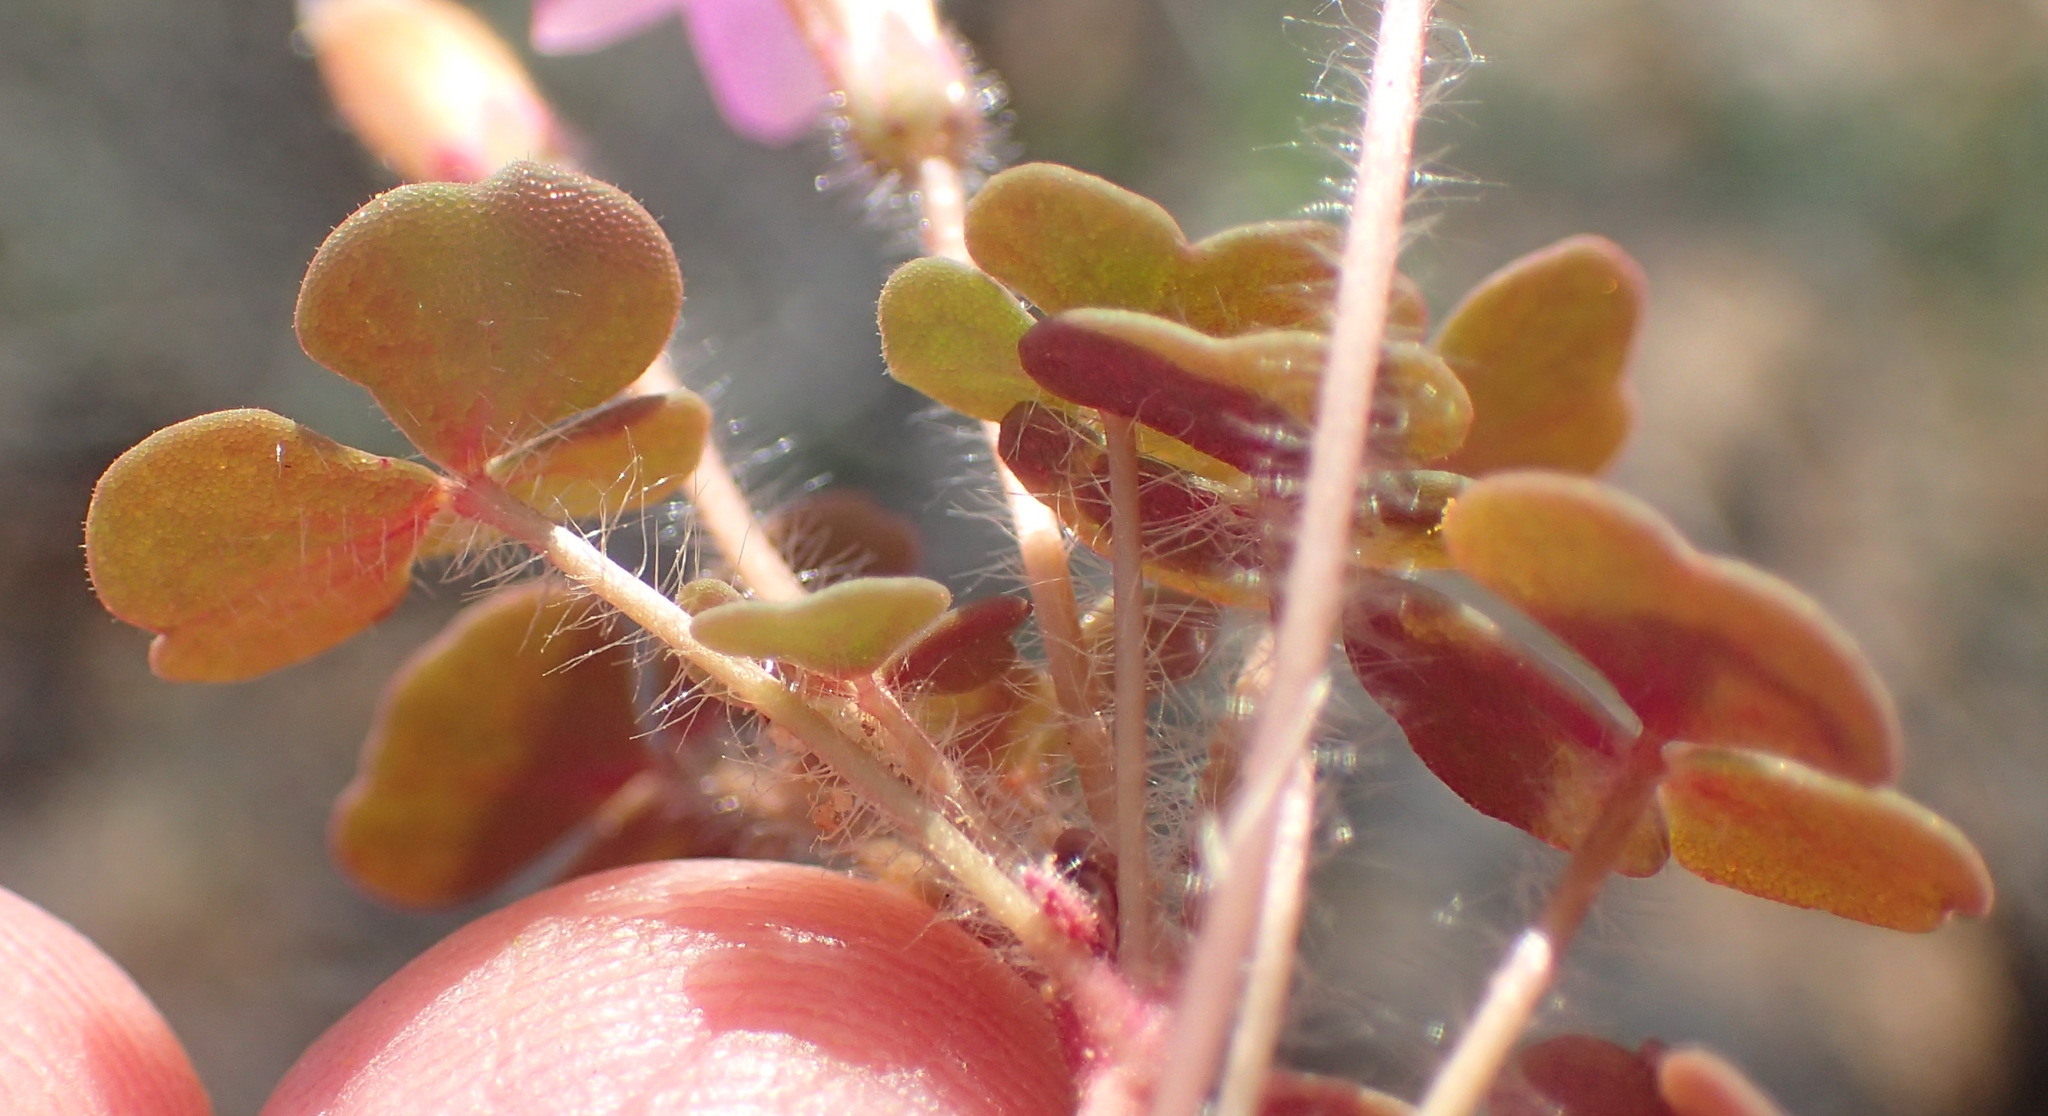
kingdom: Plantae
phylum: Tracheophyta
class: Magnoliopsida
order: Oxalidales
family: Oxalidaceae
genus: Oxalis
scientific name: Oxalis punctata
